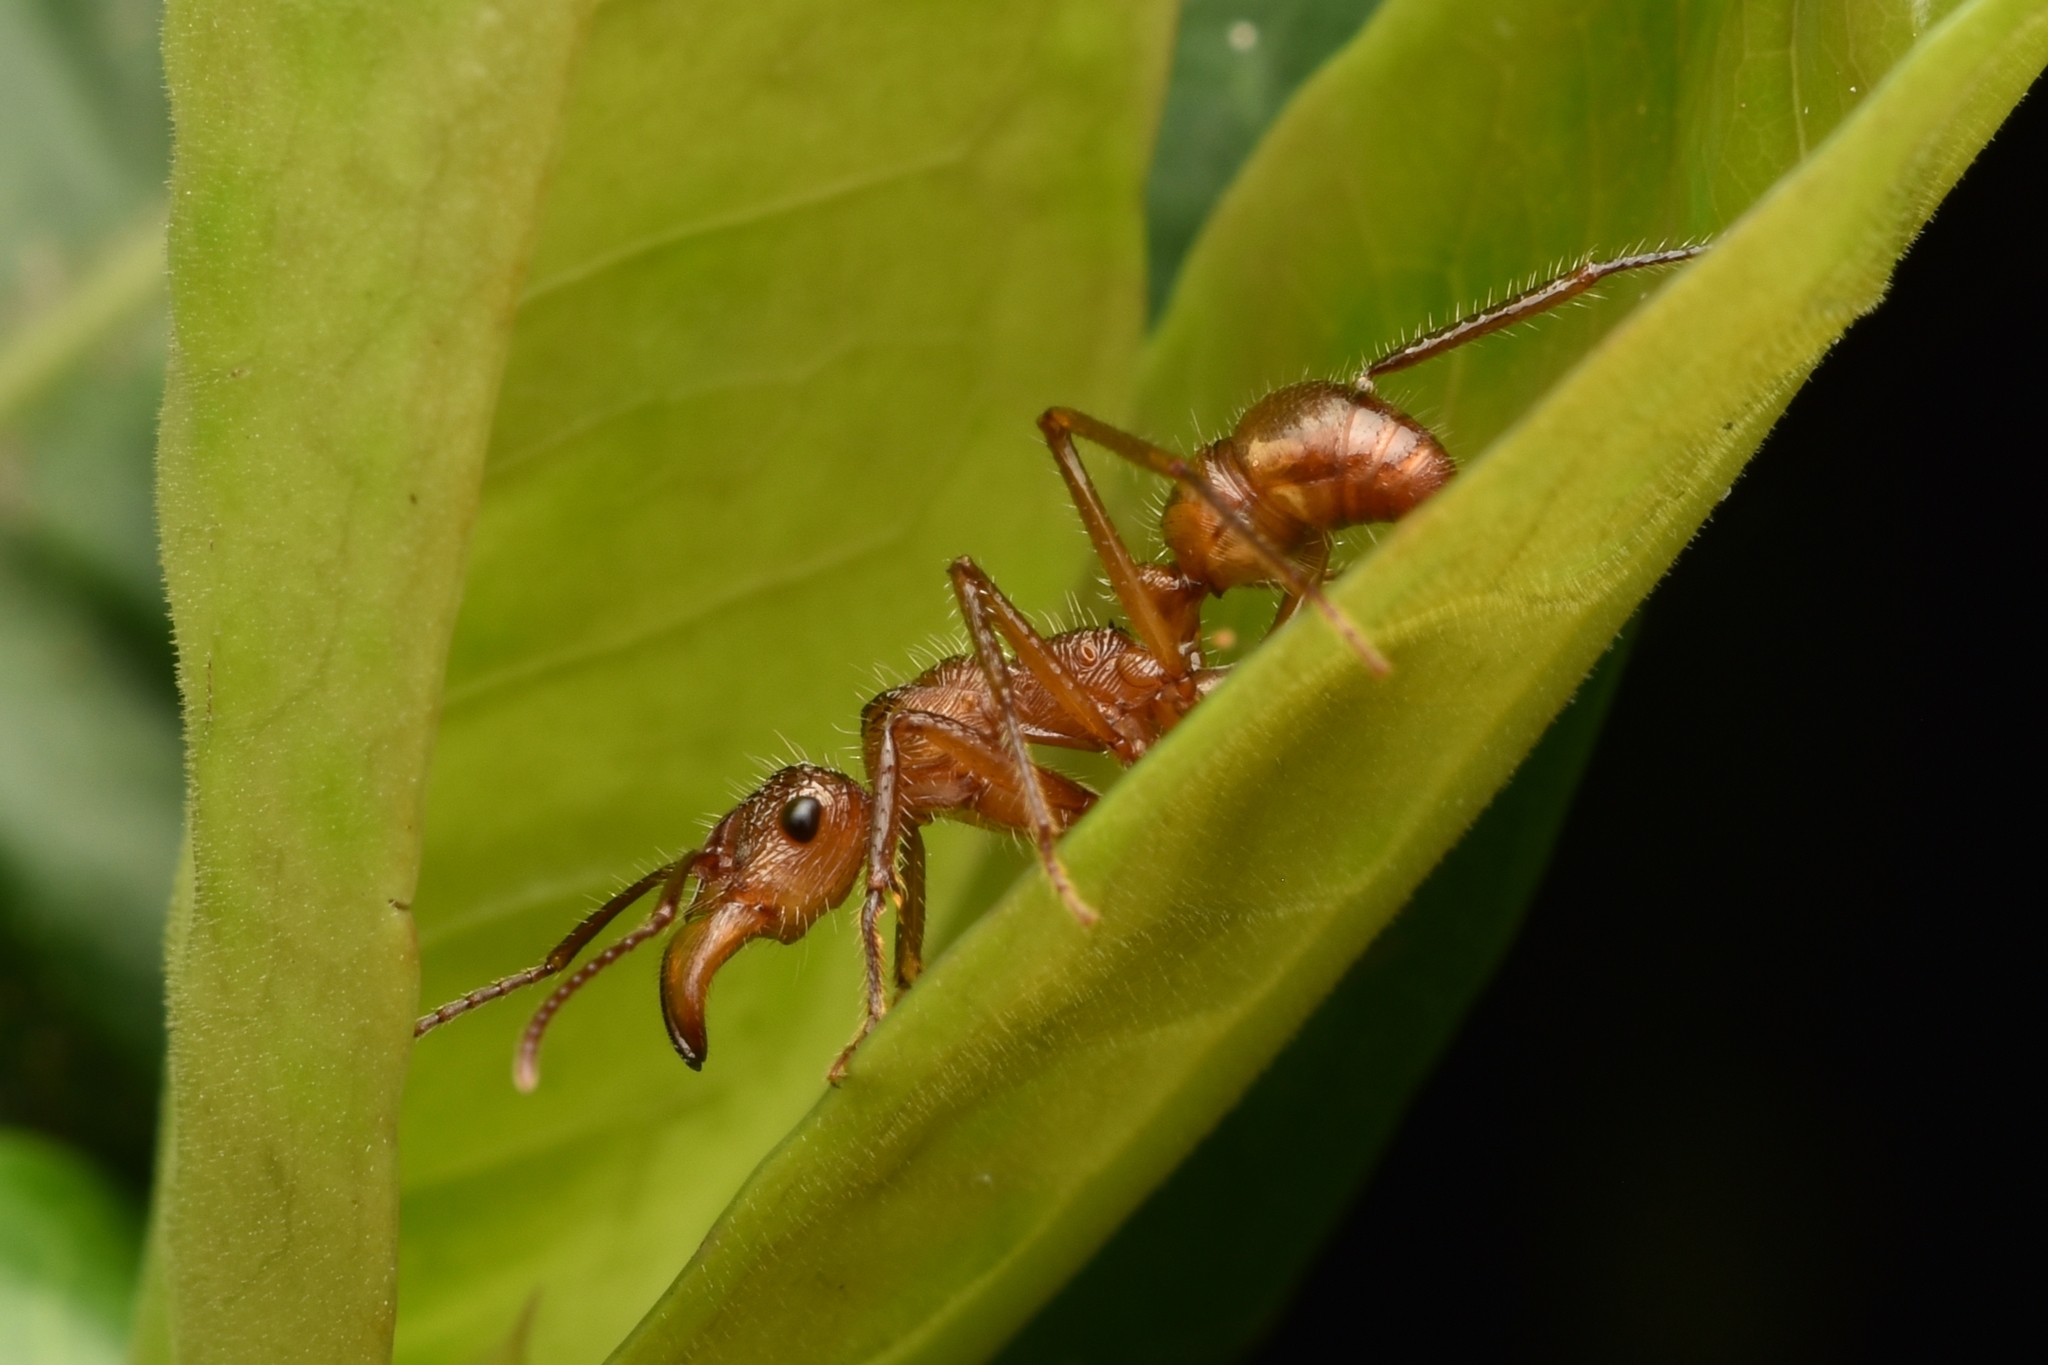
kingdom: Animalia
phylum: Arthropoda
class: Insecta
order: Hymenoptera
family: Formicidae
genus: Ectatomma
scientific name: Ectatomma tuberculatum
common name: Ant
